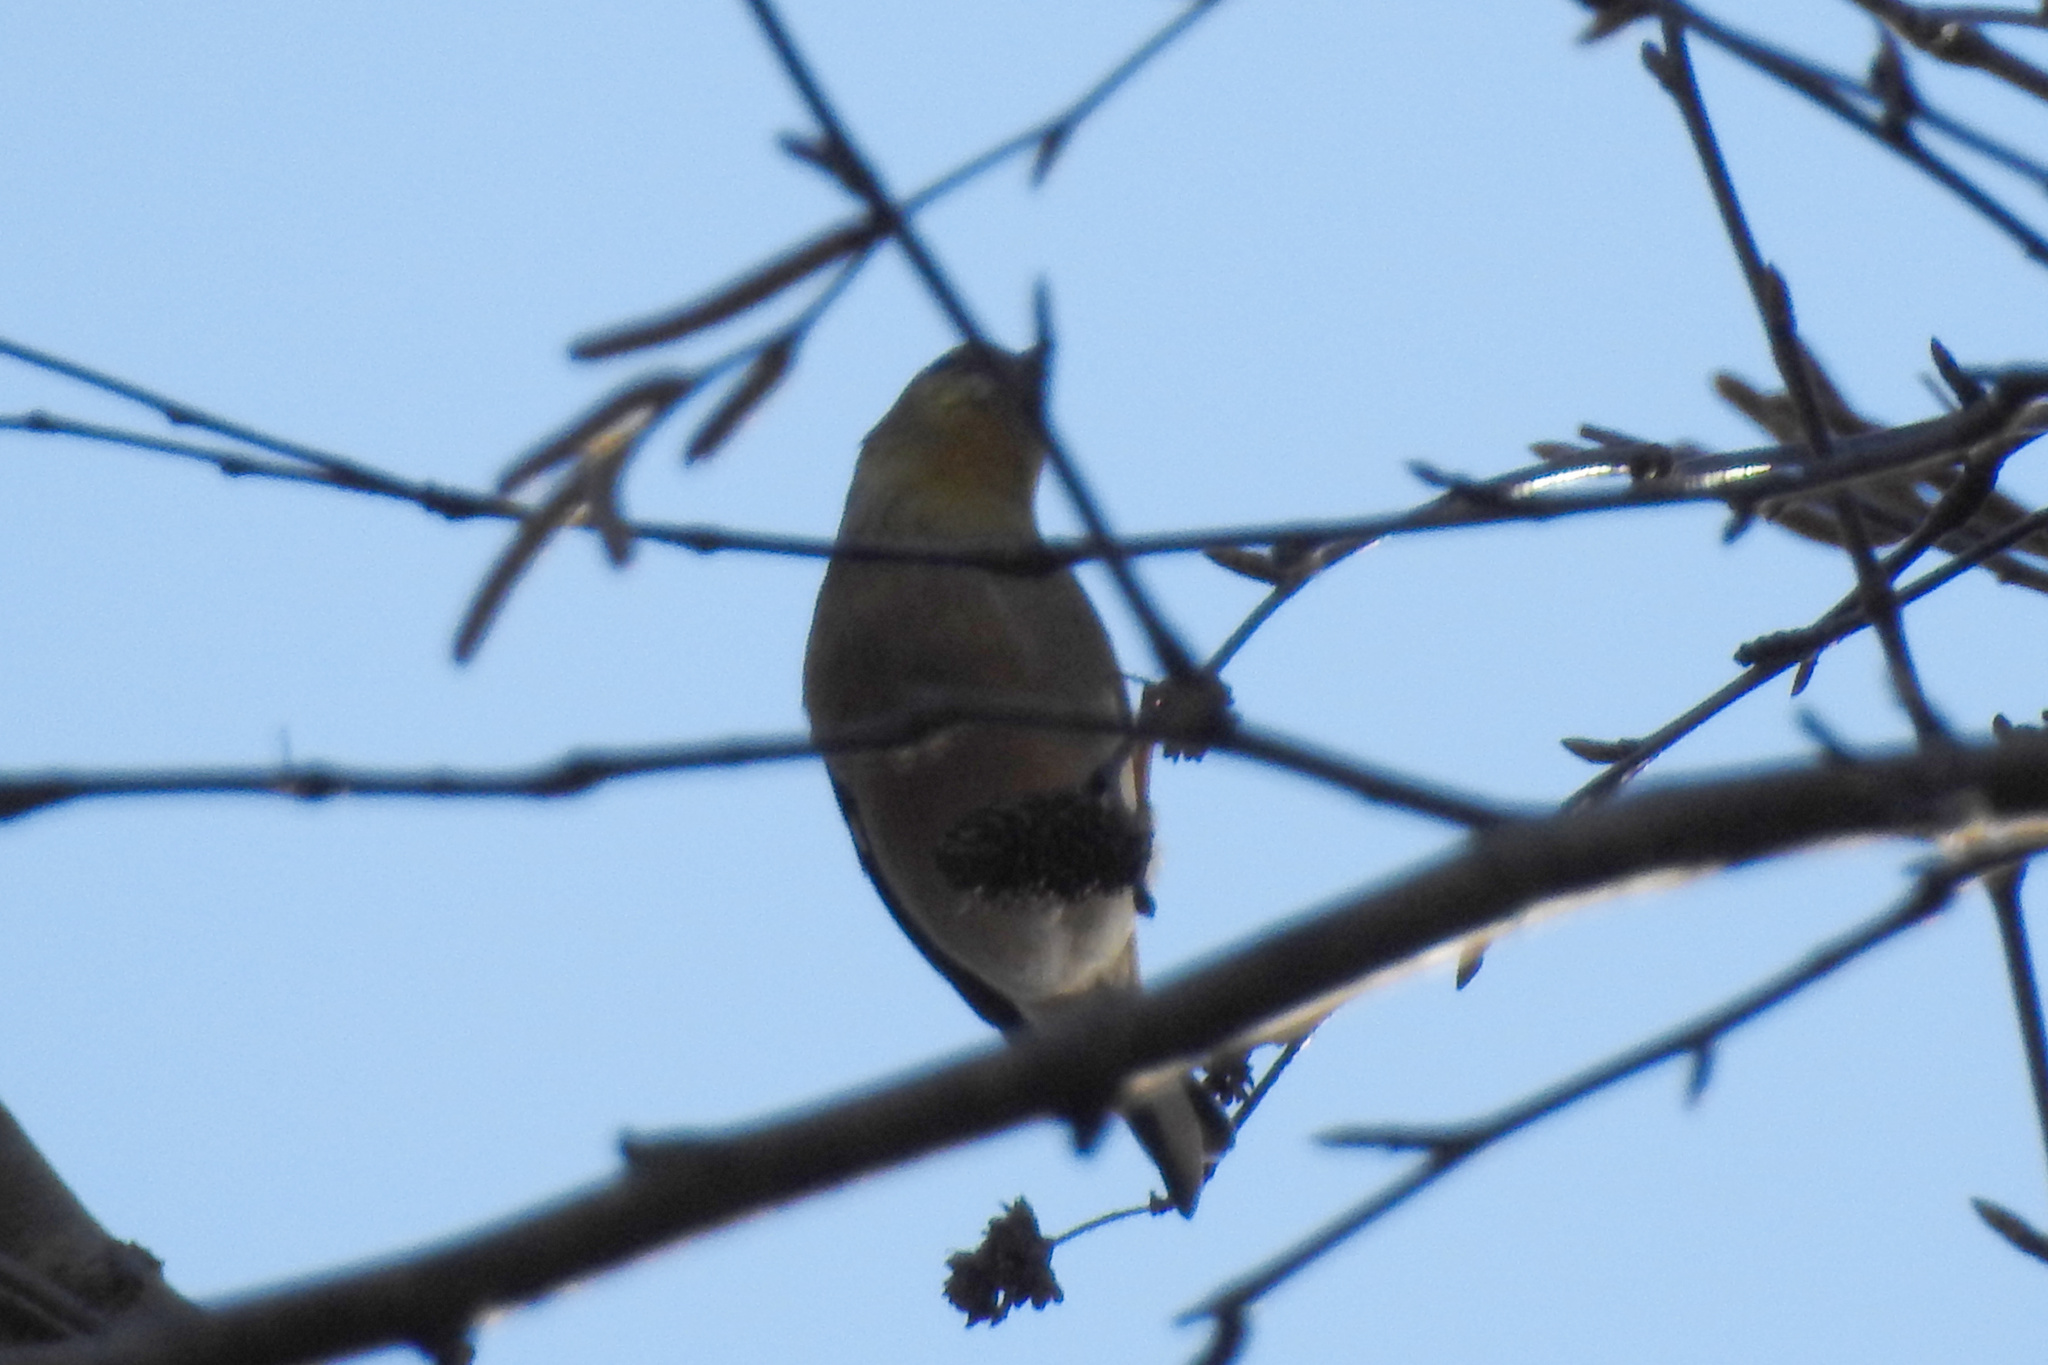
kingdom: Animalia
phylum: Chordata
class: Aves
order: Passeriformes
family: Fringillidae
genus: Spinus
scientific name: Spinus tristis
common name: American goldfinch
